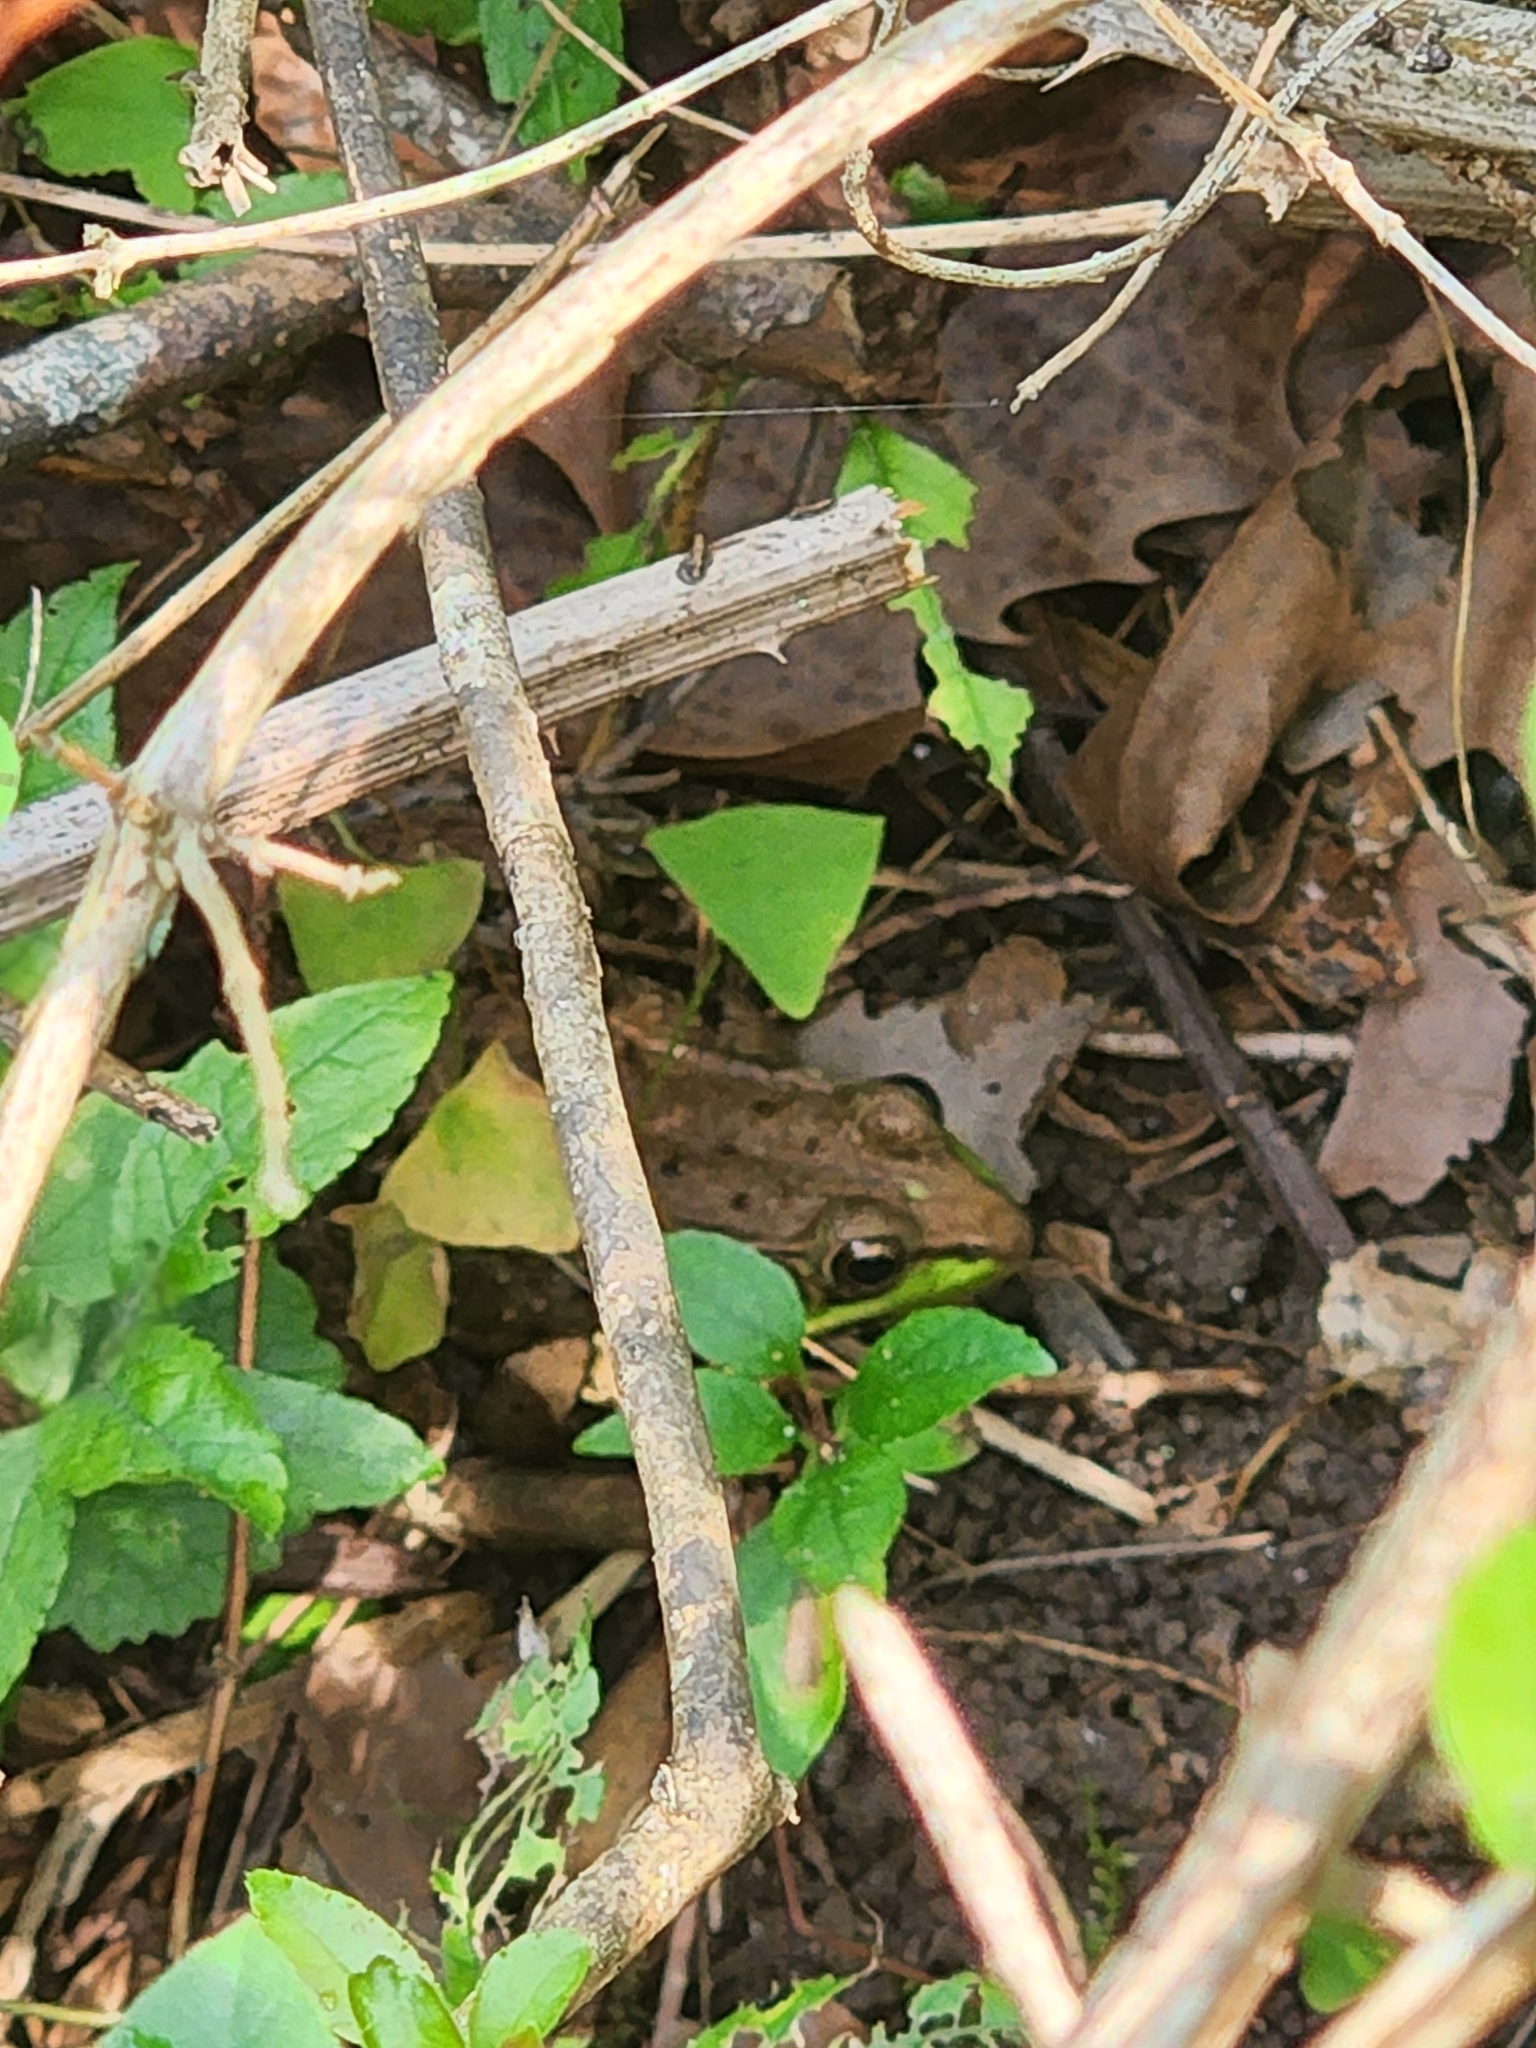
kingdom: Animalia
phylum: Chordata
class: Amphibia
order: Anura
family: Ranidae
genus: Lithobates
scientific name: Lithobates clamitans
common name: Green frog
